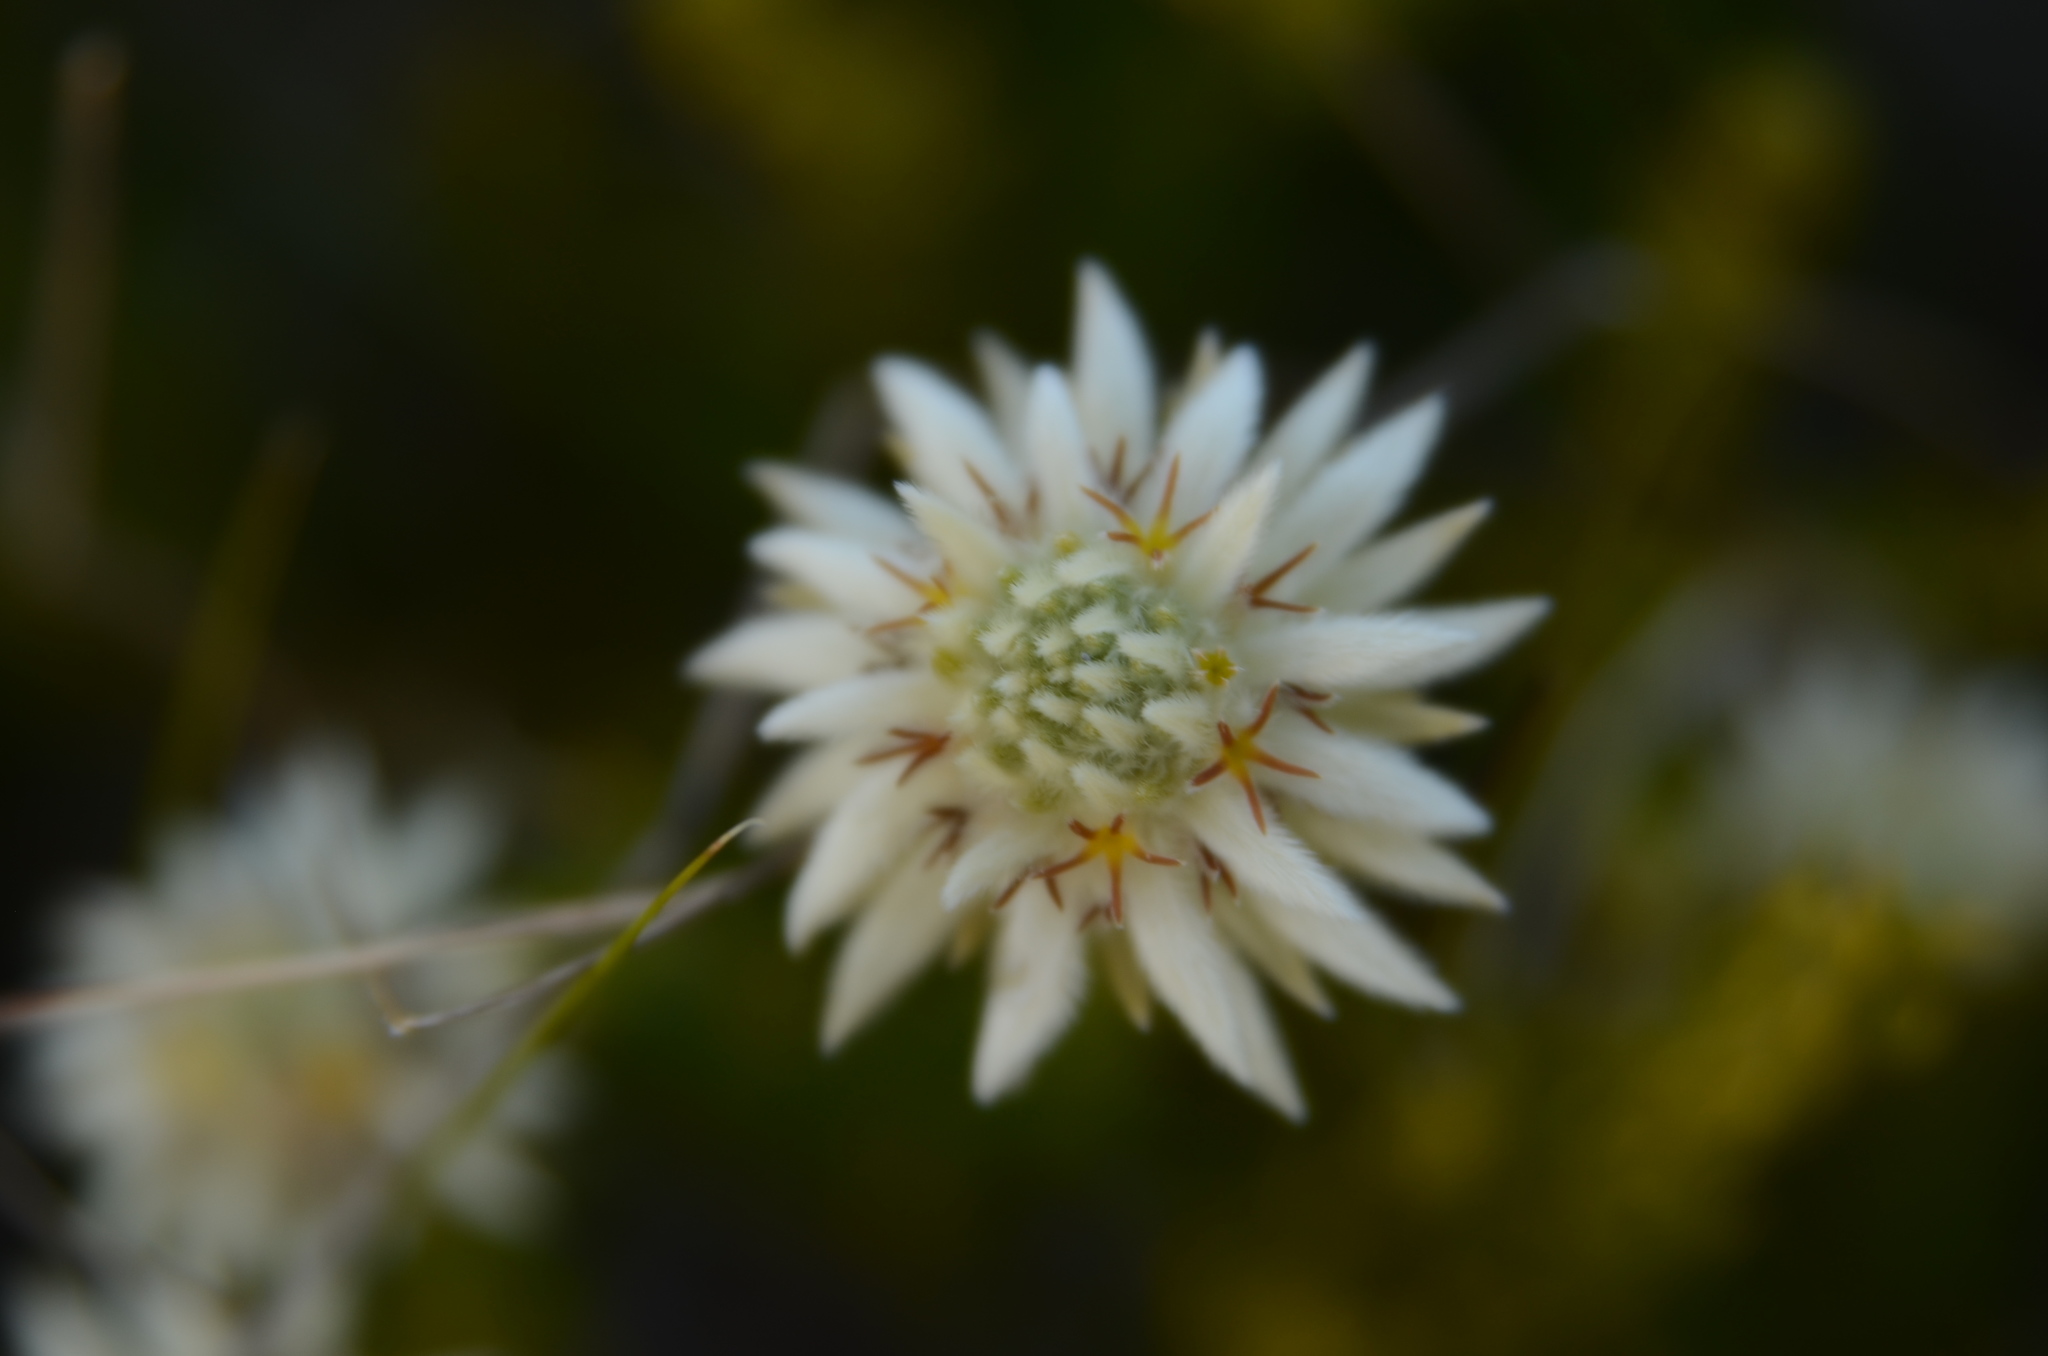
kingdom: Plantae
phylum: Tracheophyta
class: Magnoliopsida
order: Rosales
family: Rhamnaceae
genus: Phylica
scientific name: Phylica dodii
